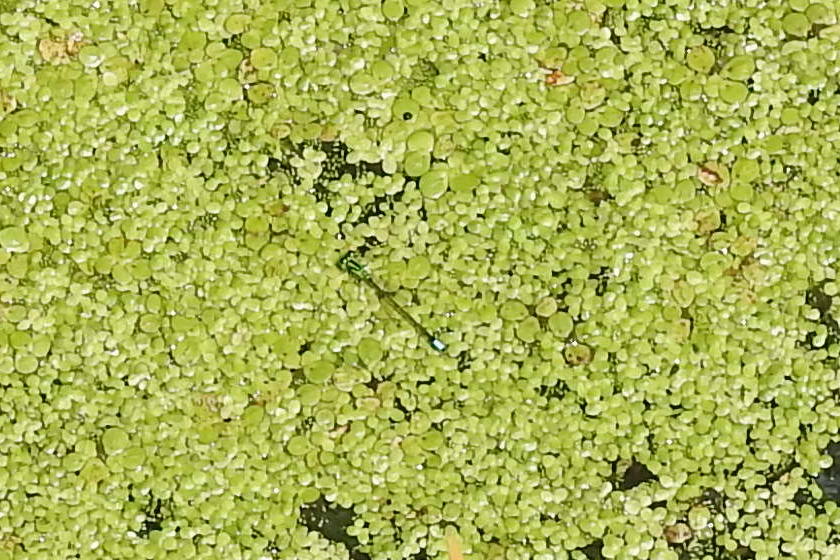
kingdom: Animalia
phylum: Arthropoda
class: Insecta
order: Odonata
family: Coenagrionidae
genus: Ischnura
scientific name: Ischnura verticalis
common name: Eastern forktail
